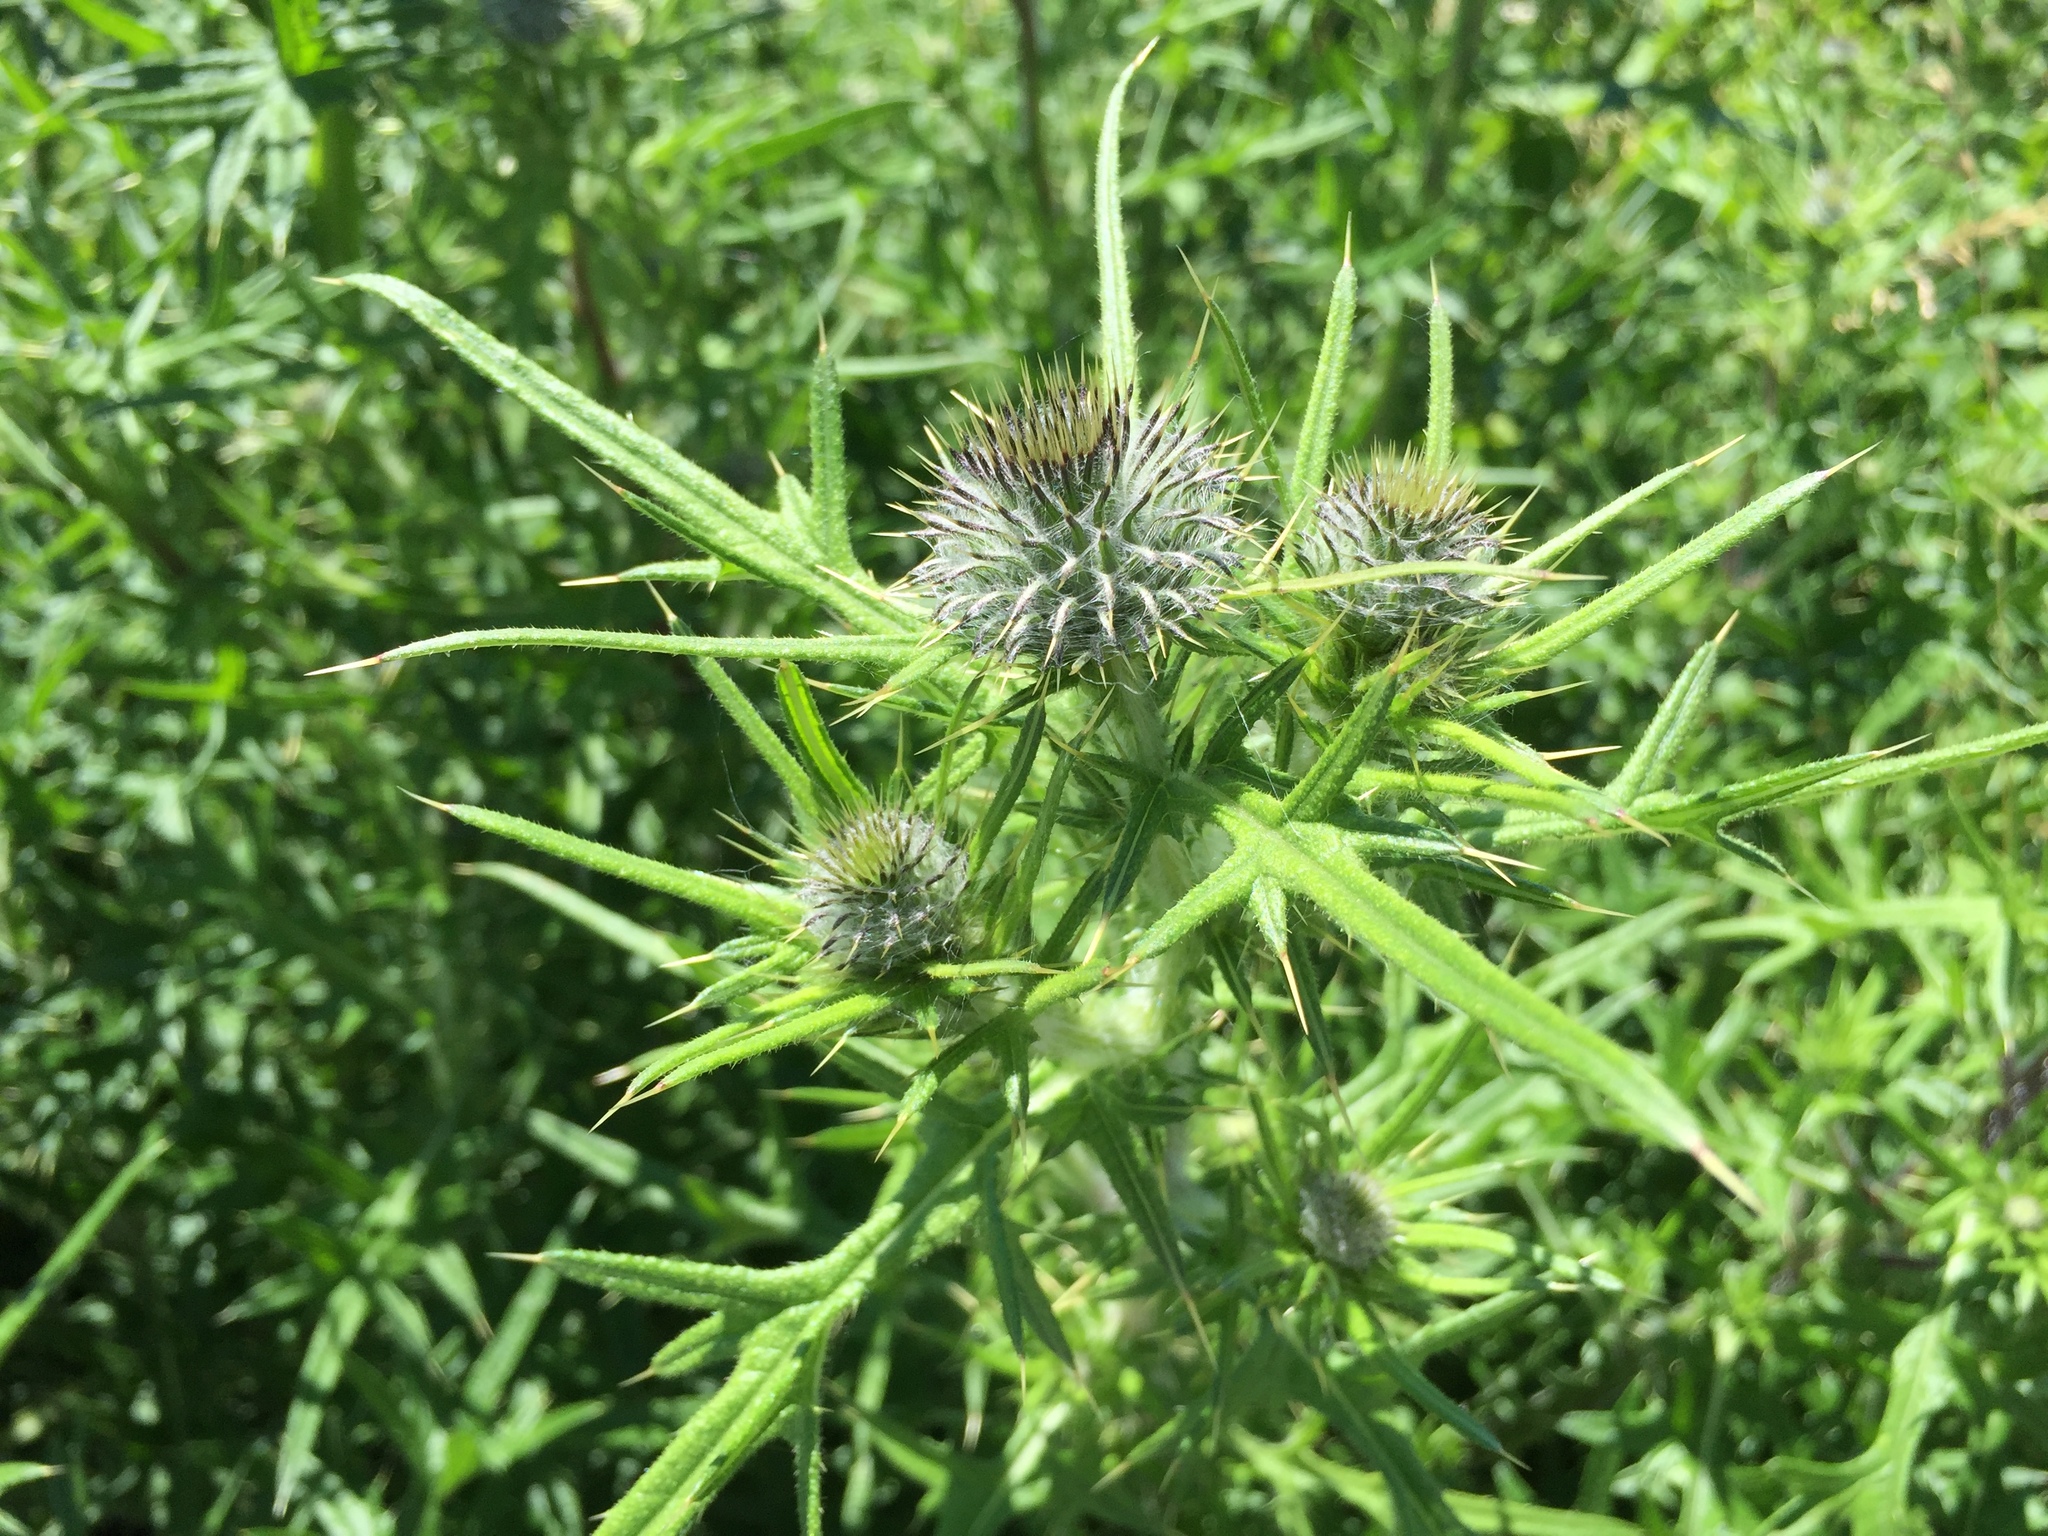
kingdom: Plantae
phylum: Tracheophyta
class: Magnoliopsida
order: Asterales
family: Asteraceae
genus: Cirsium
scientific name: Cirsium vulgare
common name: Bull thistle
